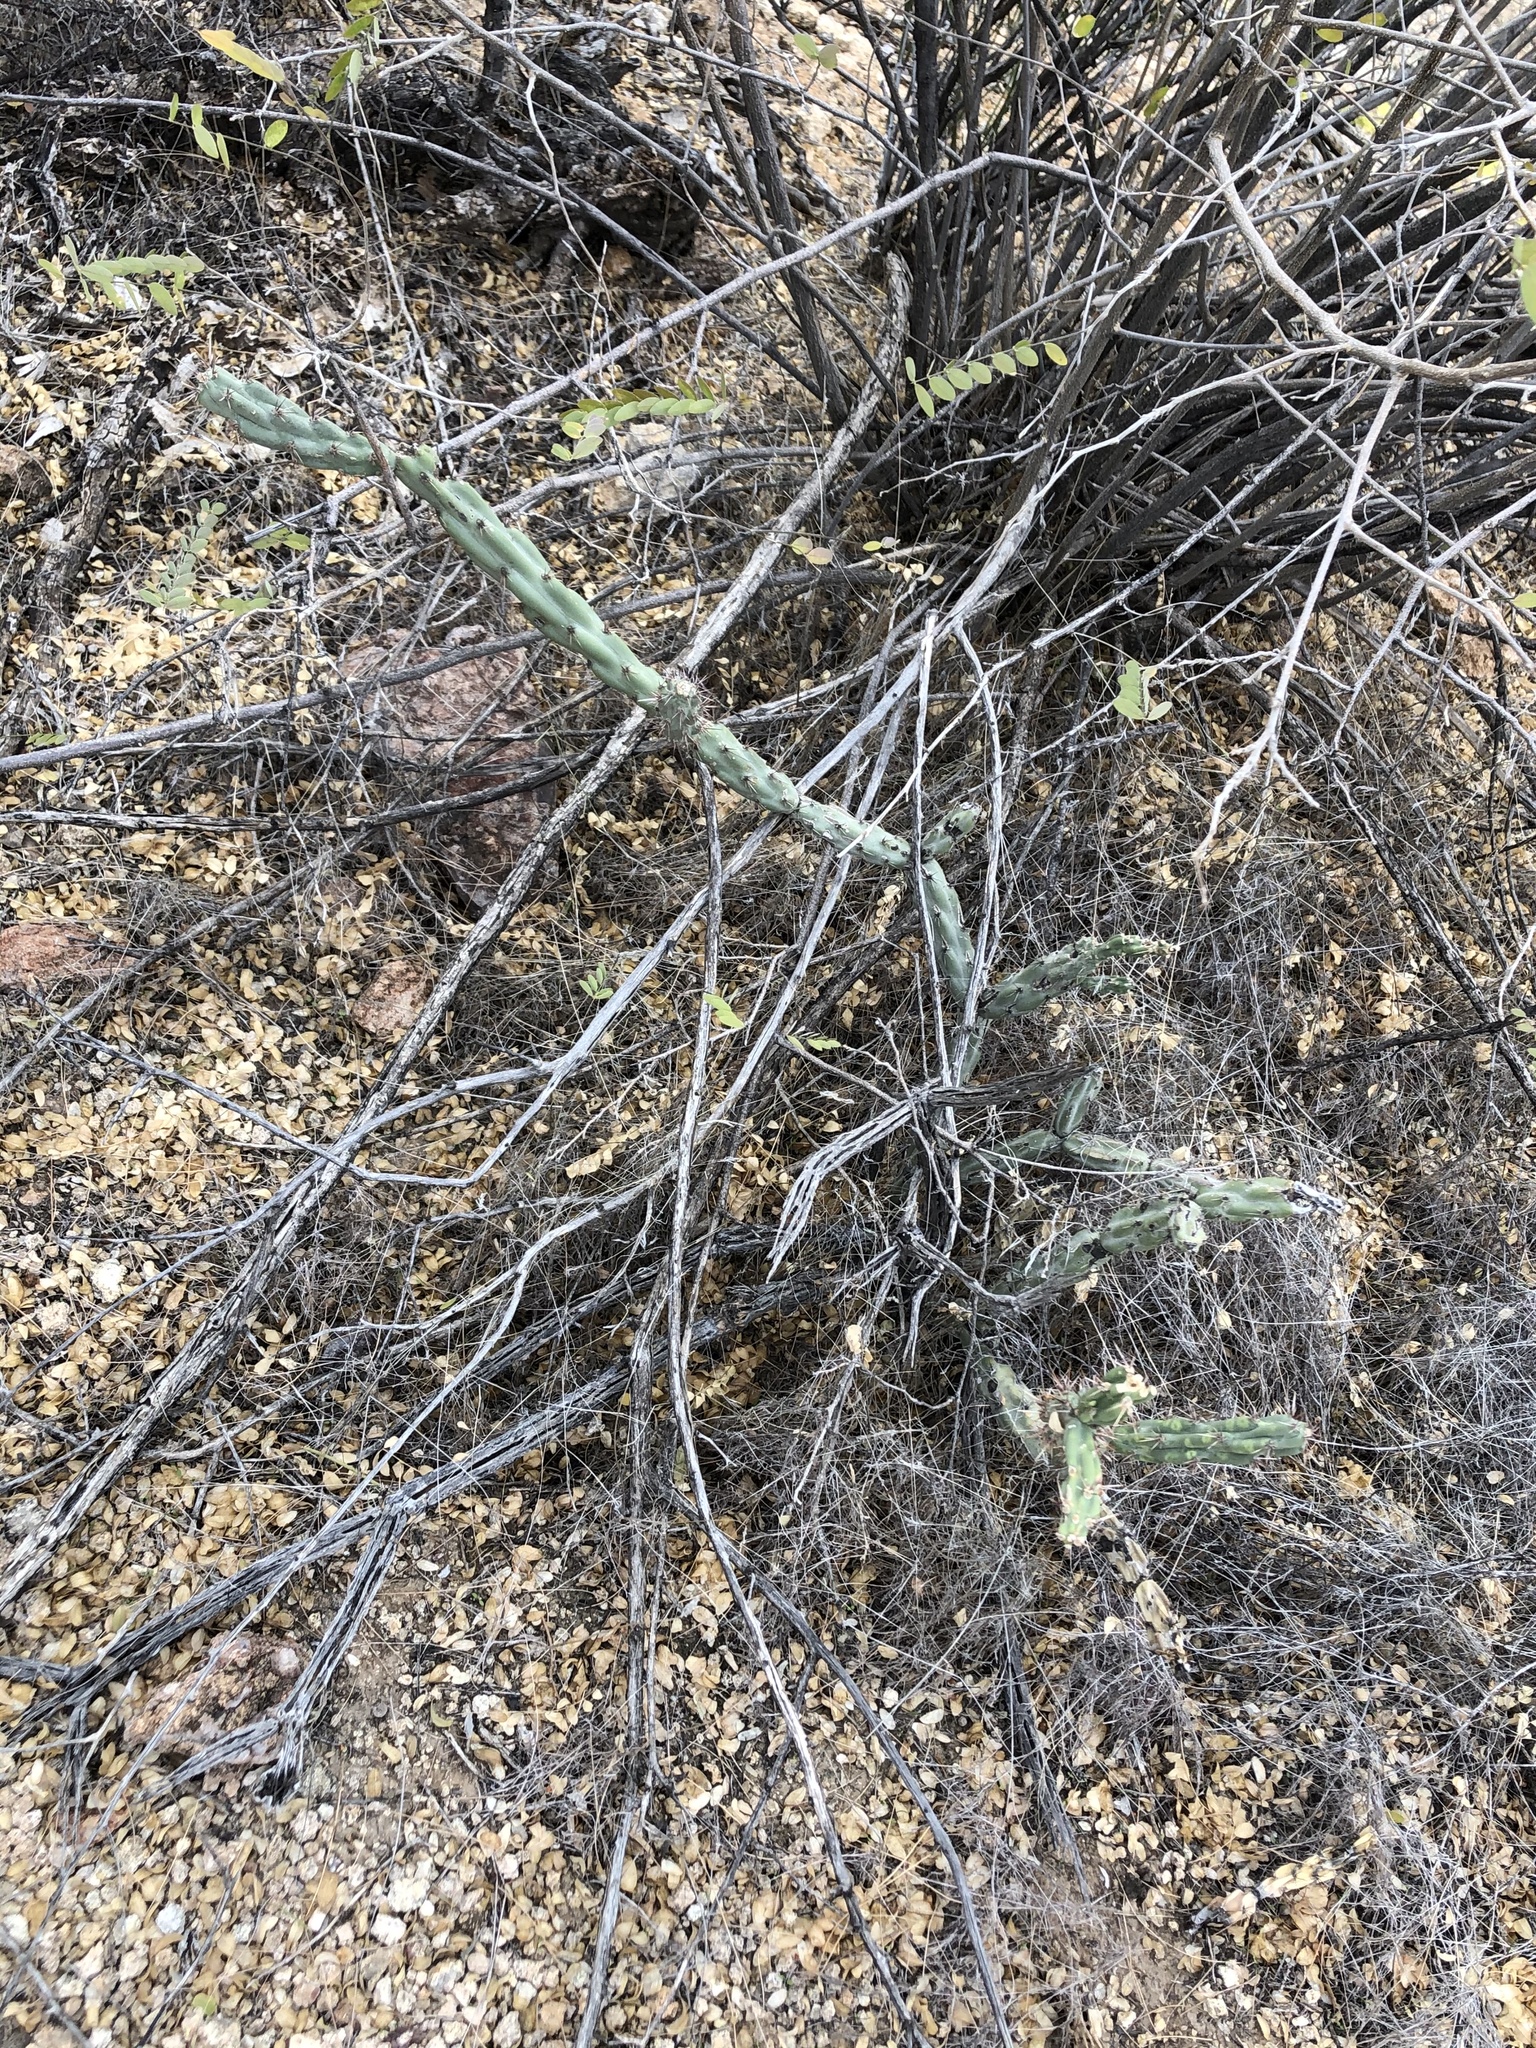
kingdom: Plantae
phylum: Tracheophyta
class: Magnoliopsida
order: Caryophyllales
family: Cactaceae
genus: Cylindropuntia
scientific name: Cylindropuntia acanthocarpa
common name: Buckhorn cholla
